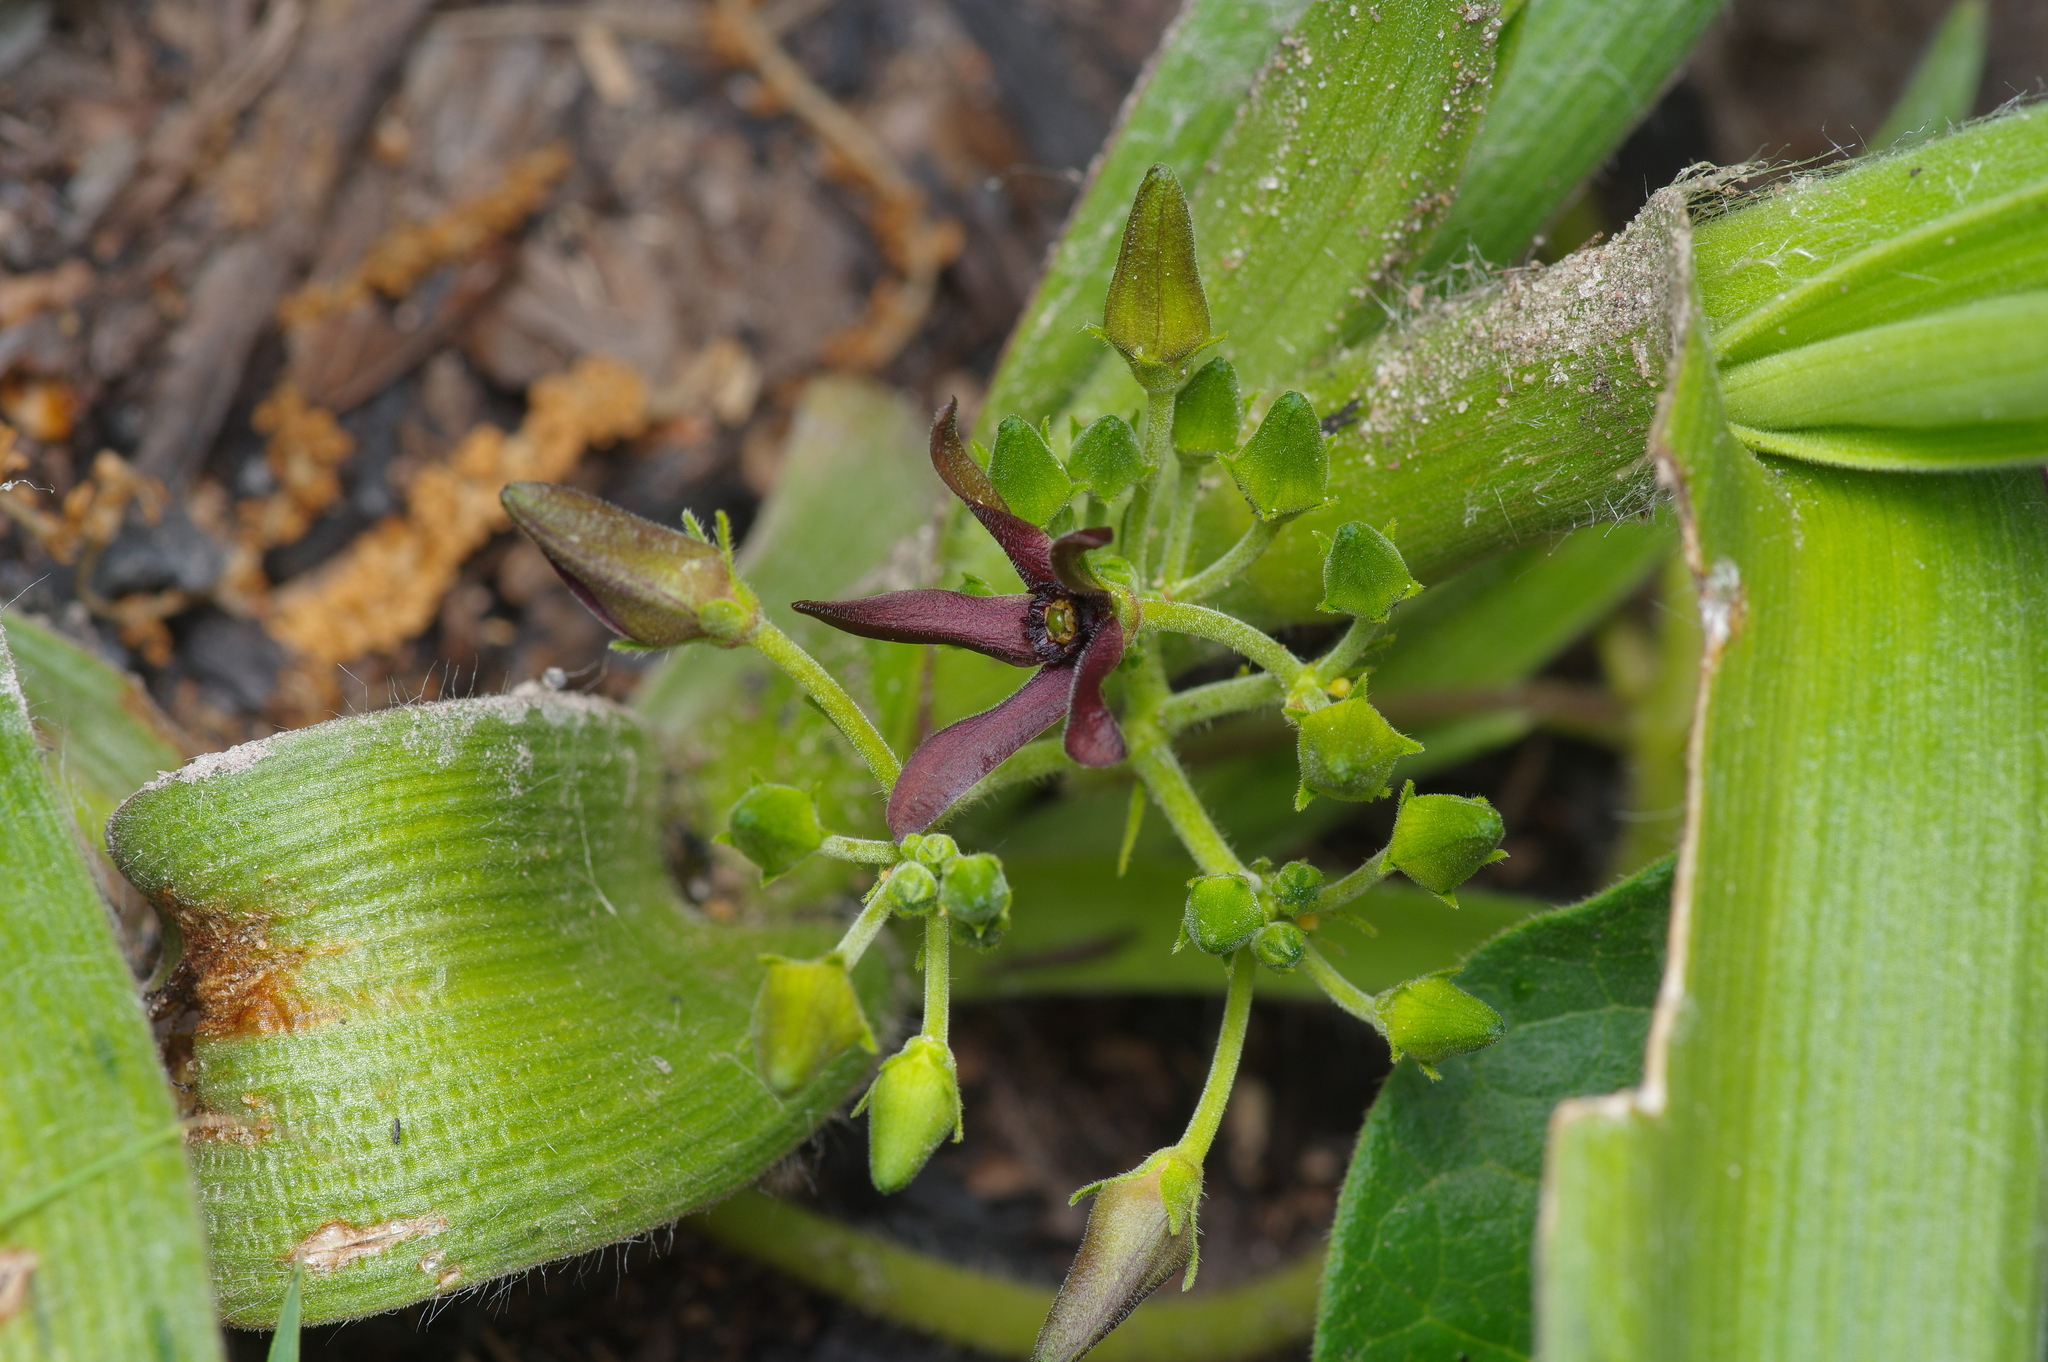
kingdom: Plantae
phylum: Tracheophyta
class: Magnoliopsida
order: Gentianales
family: Apocynaceae
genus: Matelea
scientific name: Matelea hirtelliflora
